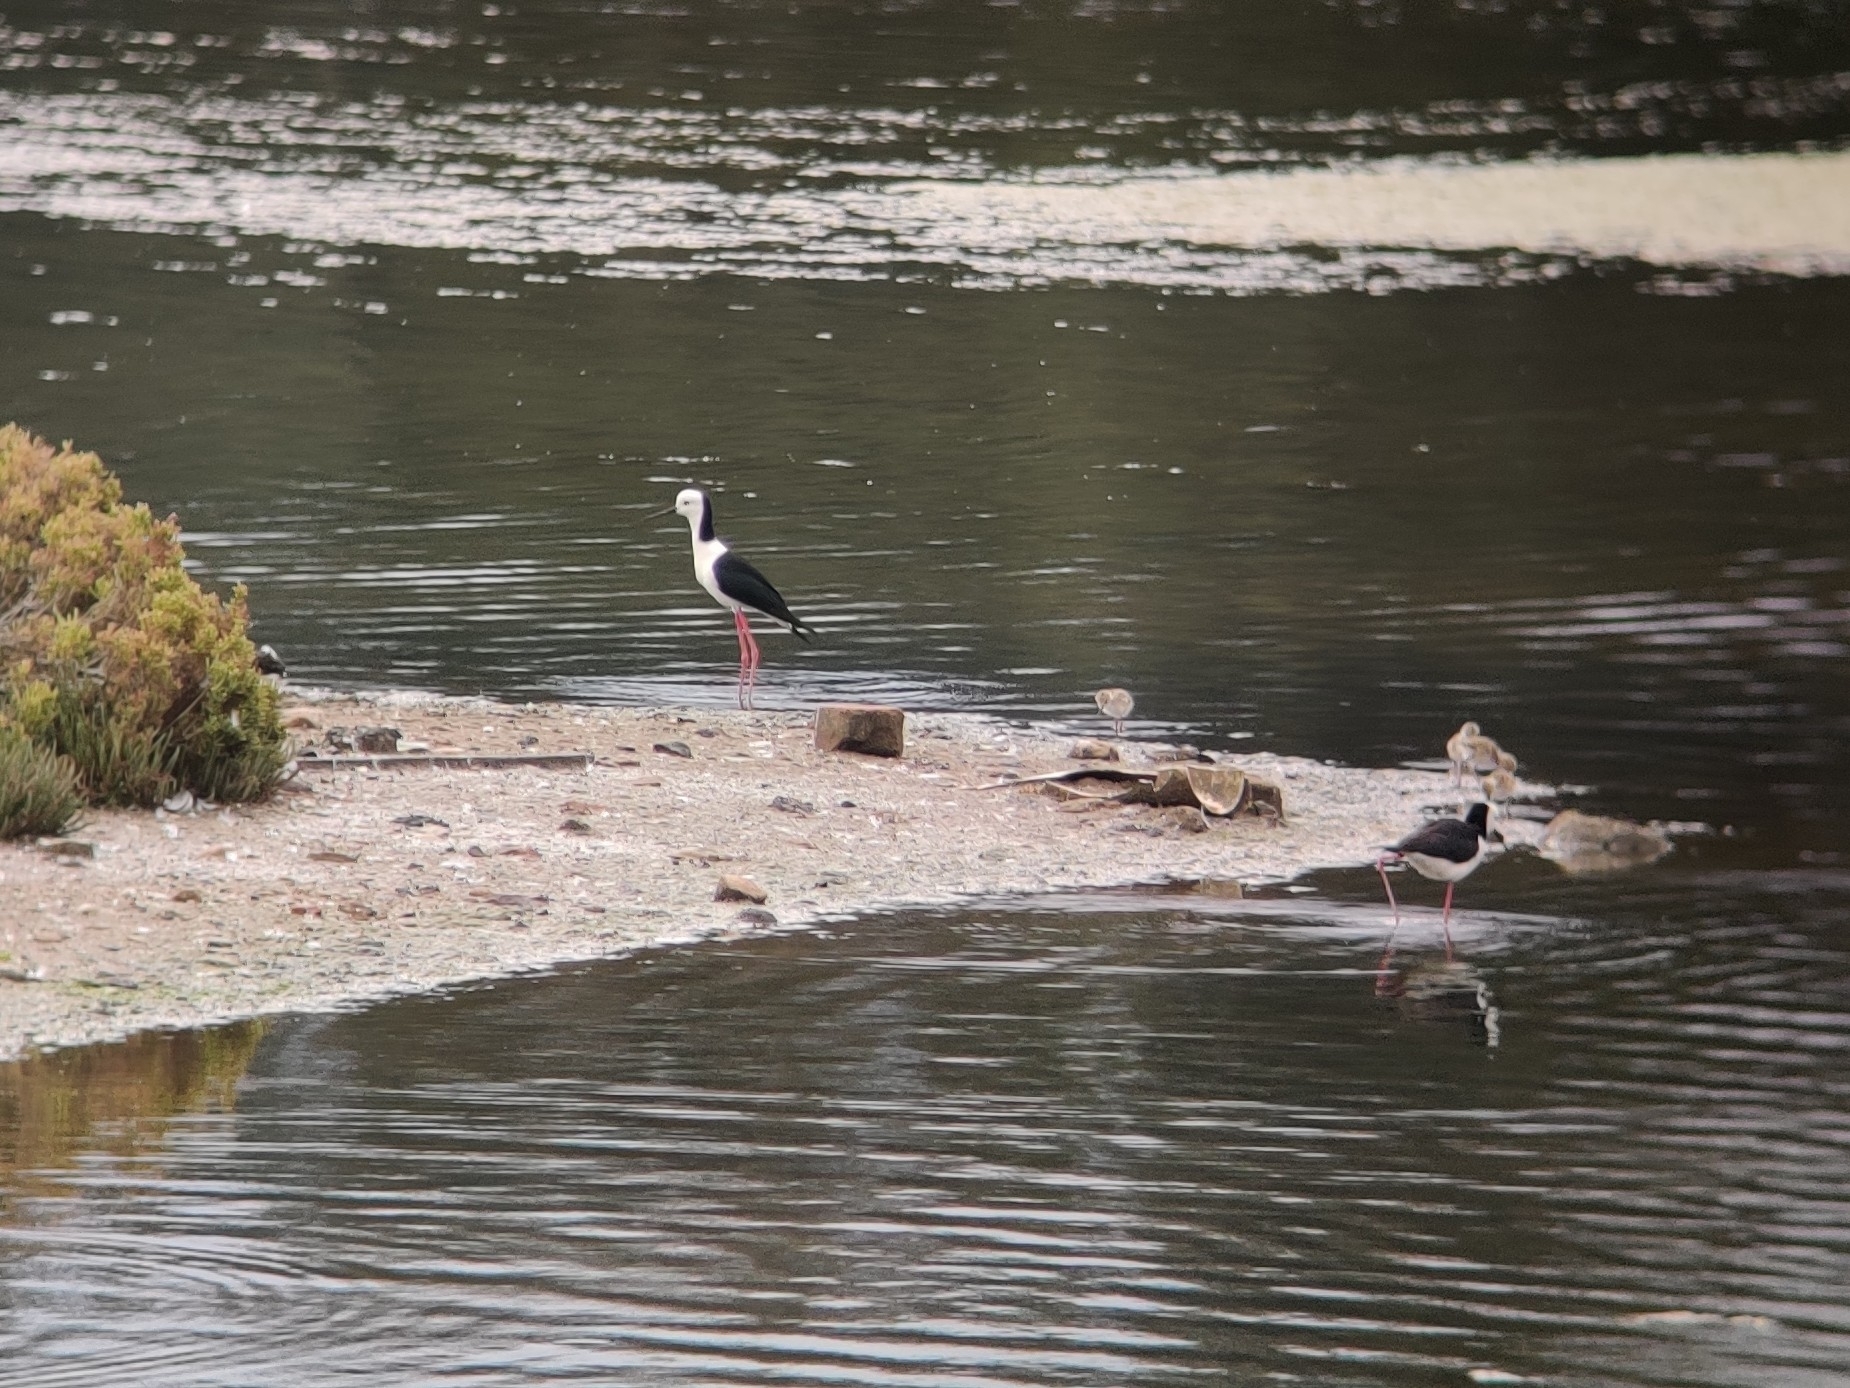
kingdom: Animalia
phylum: Chordata
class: Aves
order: Charadriiformes
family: Recurvirostridae
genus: Himantopus
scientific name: Himantopus leucocephalus
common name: White-headed stilt
